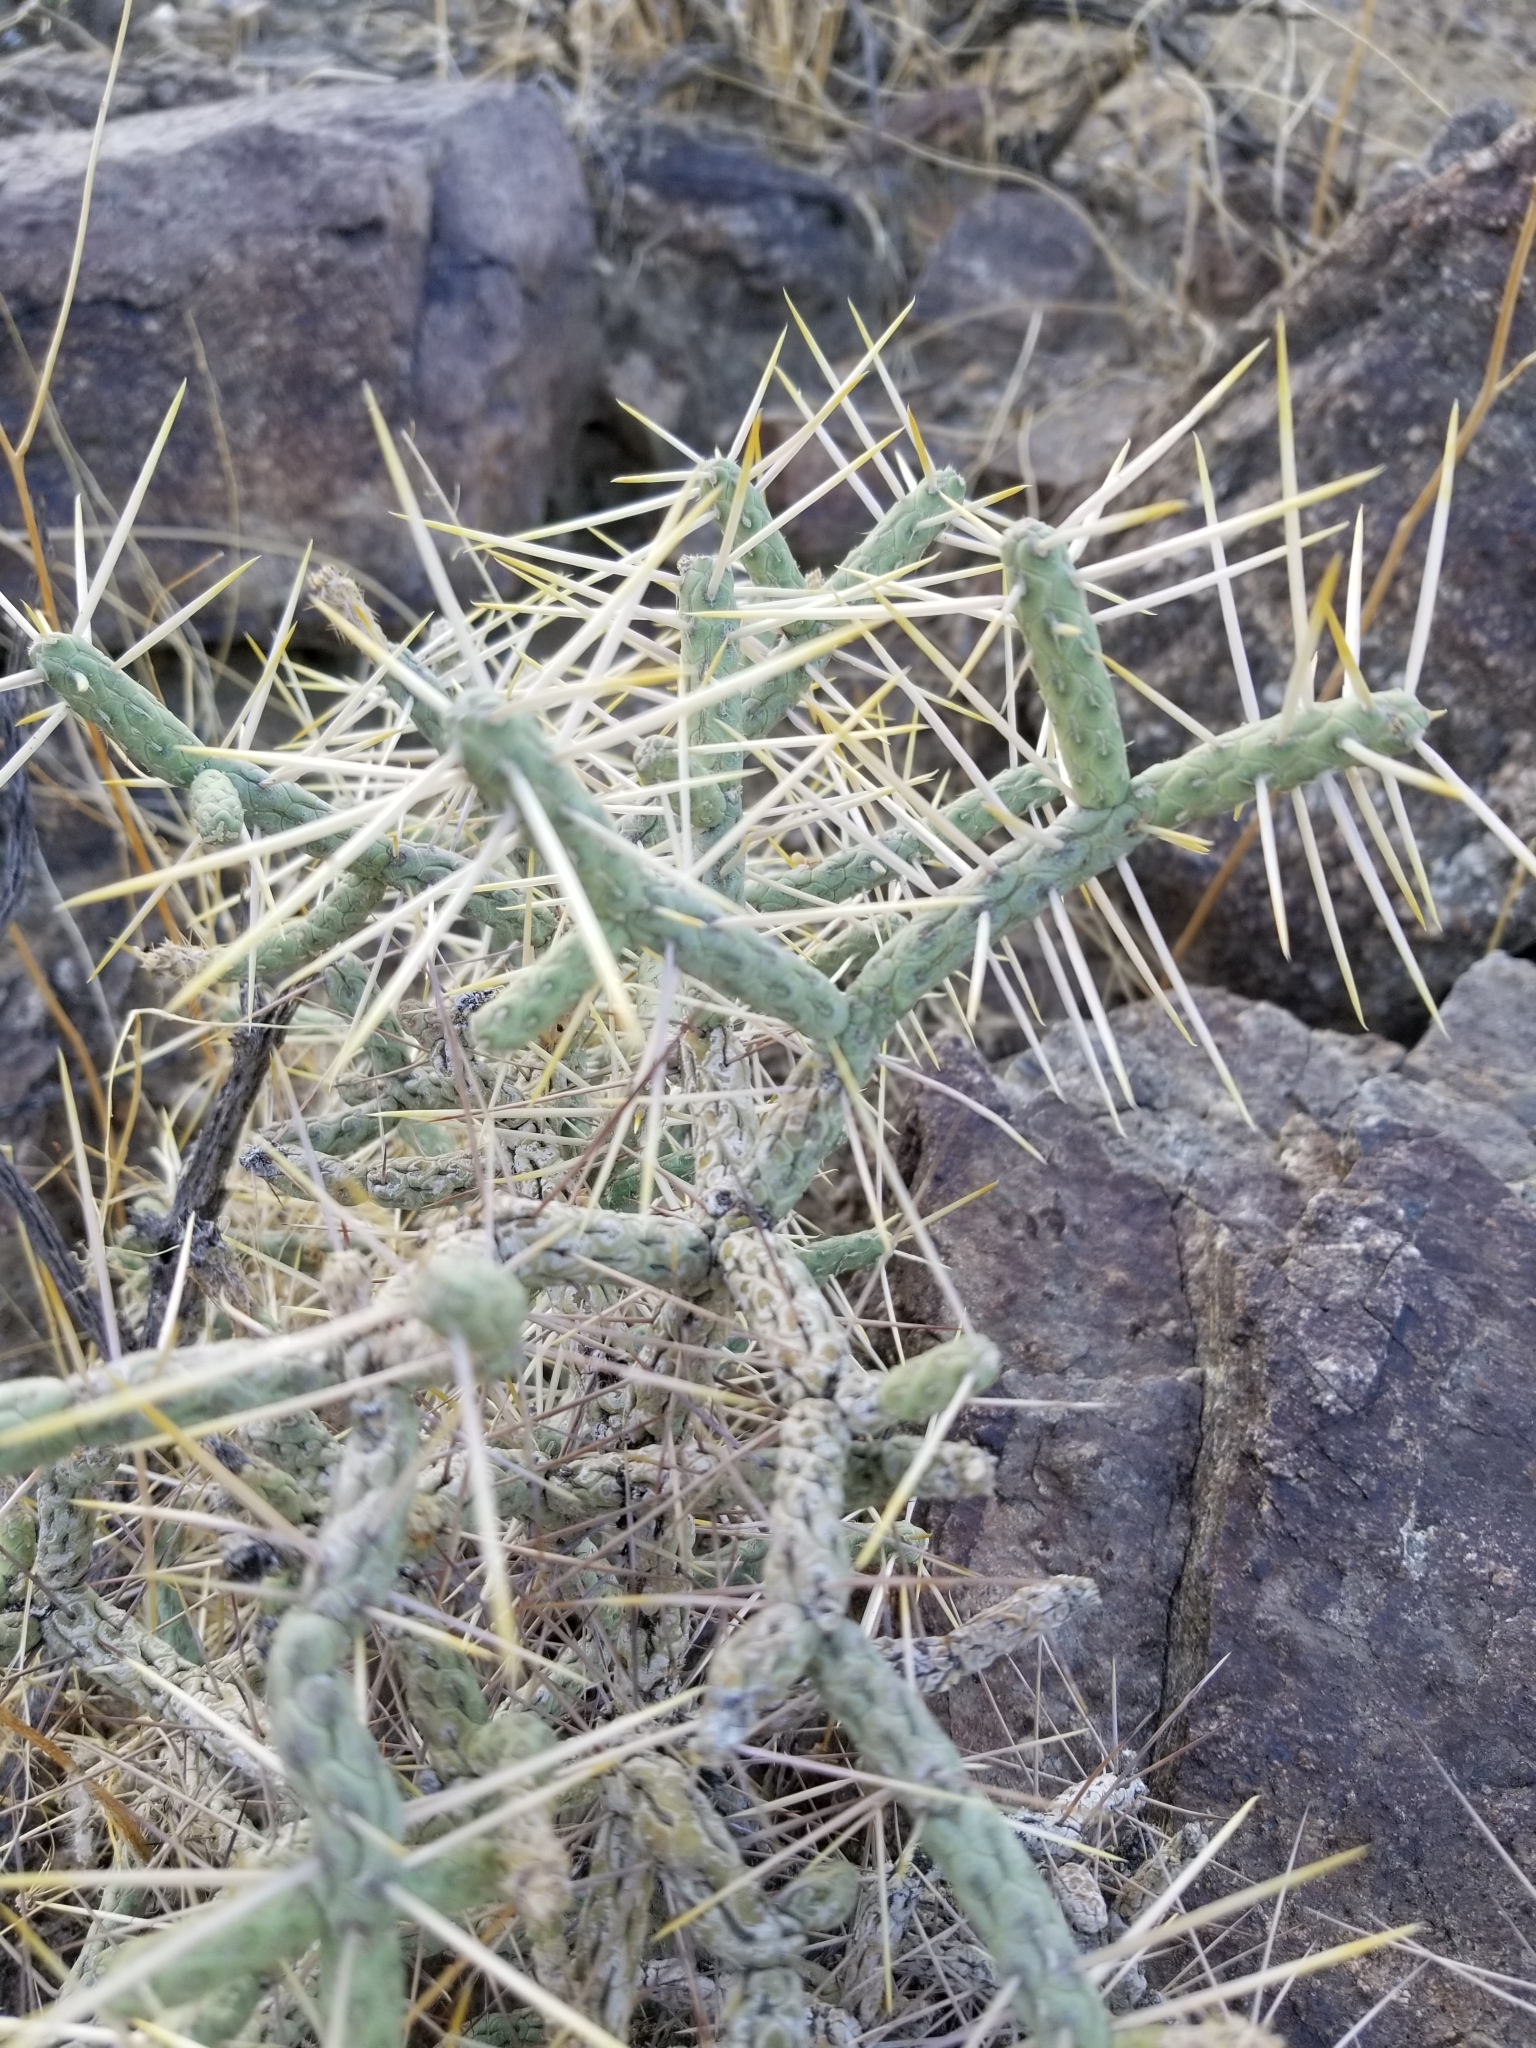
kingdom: Plantae
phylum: Tracheophyta
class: Magnoliopsida
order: Caryophyllales
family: Cactaceae
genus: Cylindropuntia
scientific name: Cylindropuntia ramosissima
